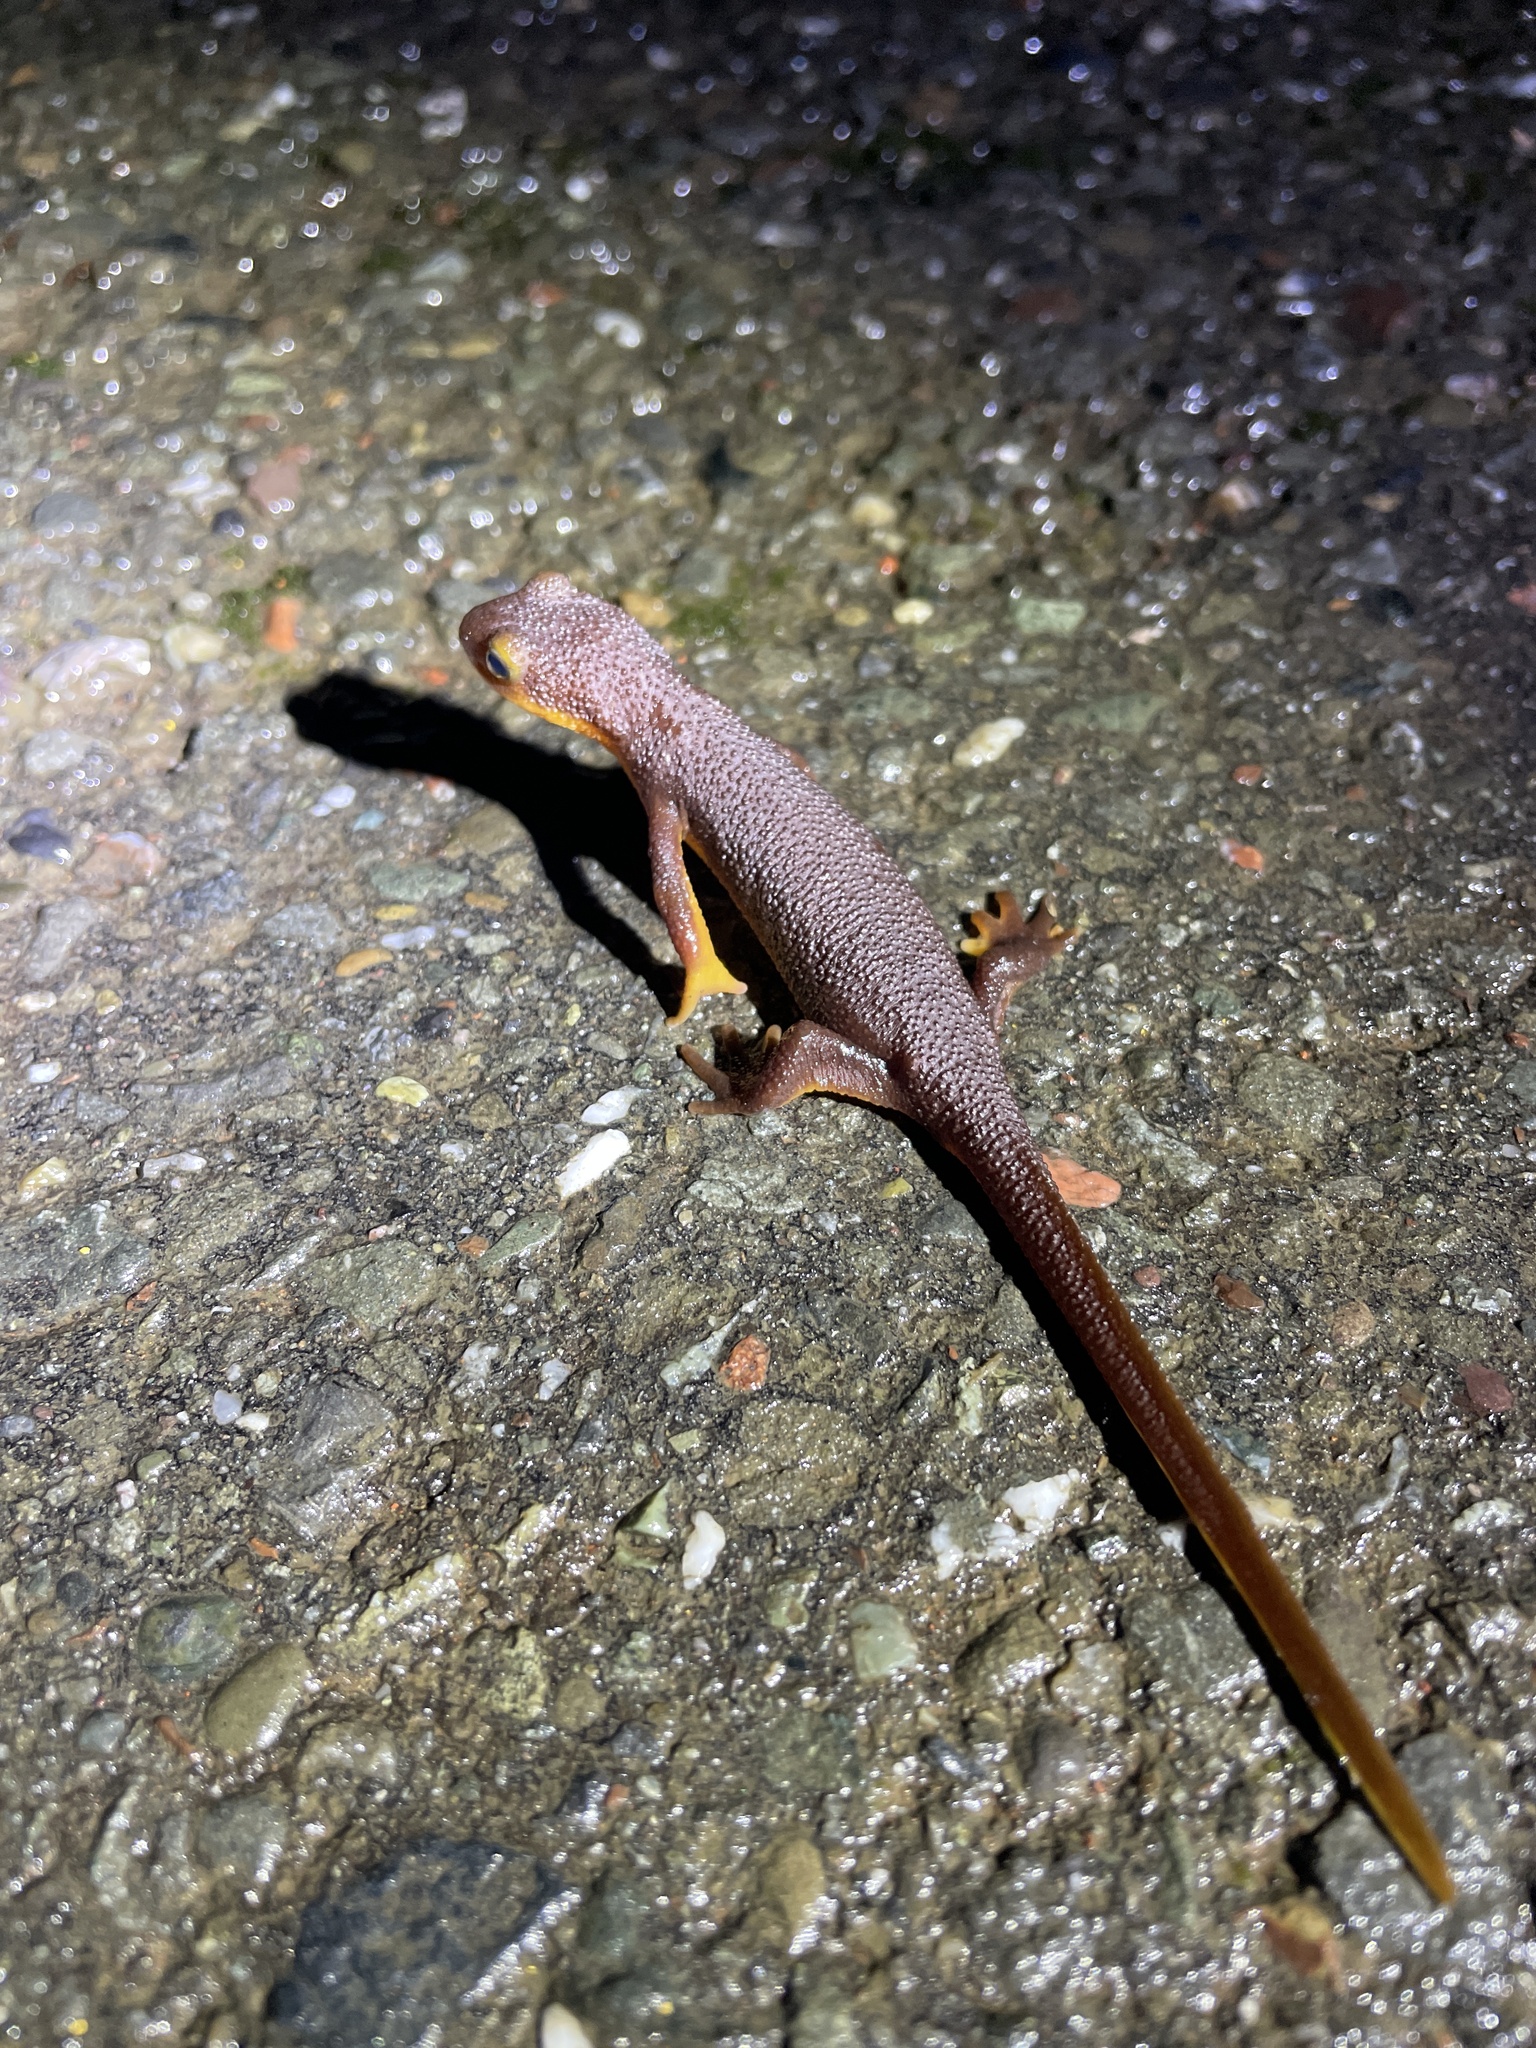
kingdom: Animalia
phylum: Chordata
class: Amphibia
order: Caudata
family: Salamandridae
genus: Taricha
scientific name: Taricha torosa
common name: California newt
